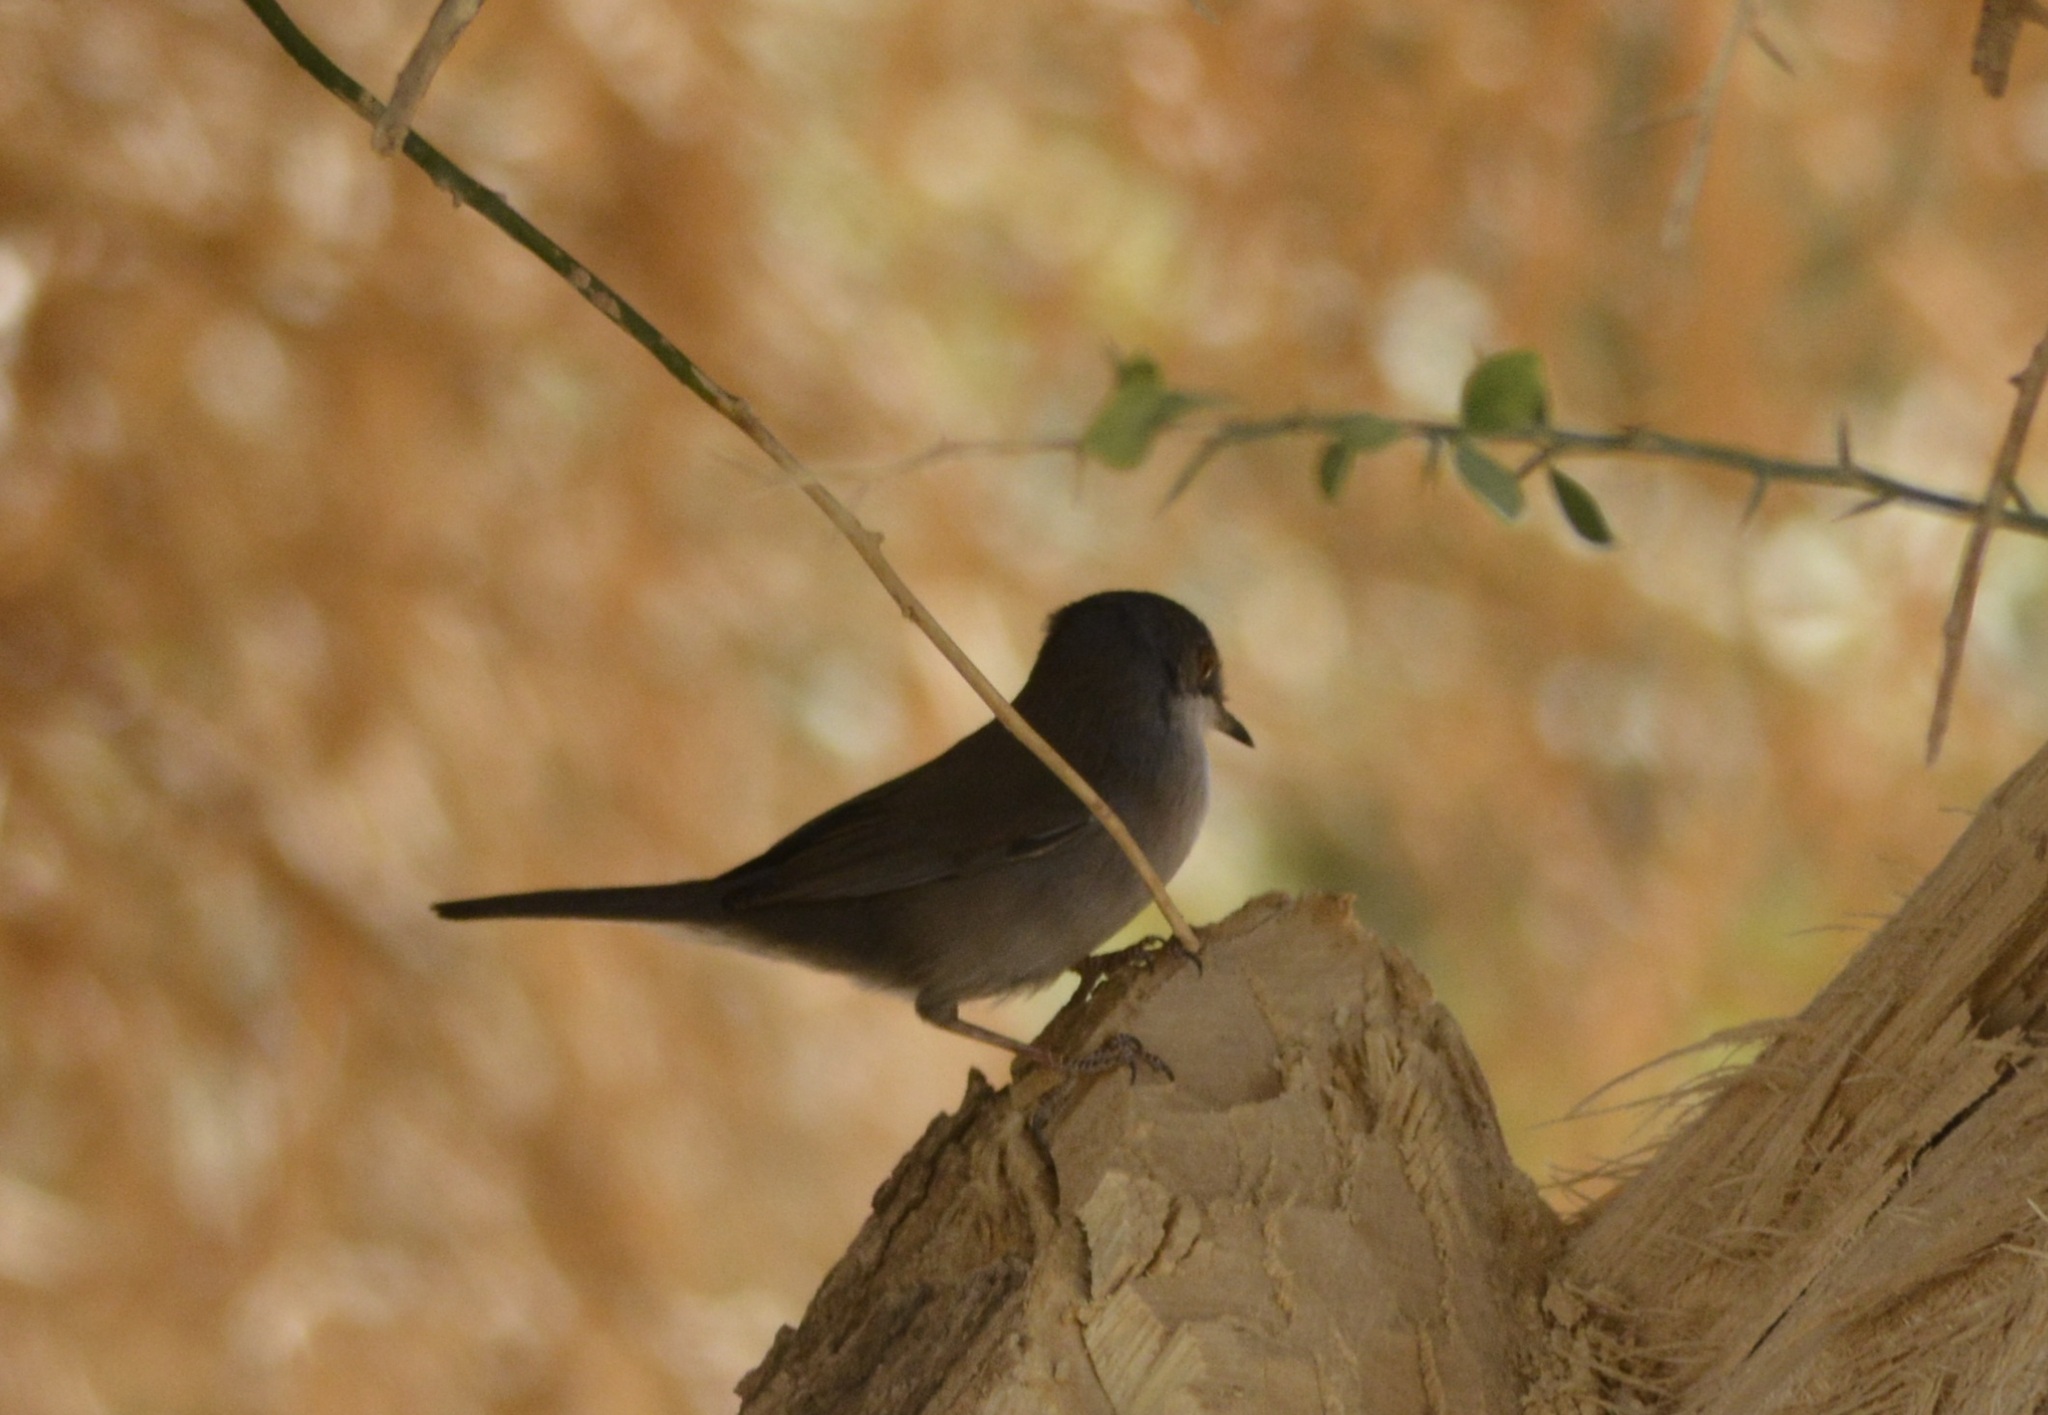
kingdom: Animalia
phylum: Chordata
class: Aves
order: Passeriformes
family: Sylviidae
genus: Curruca
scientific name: Curruca melanocephala
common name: Sardinian warbler
